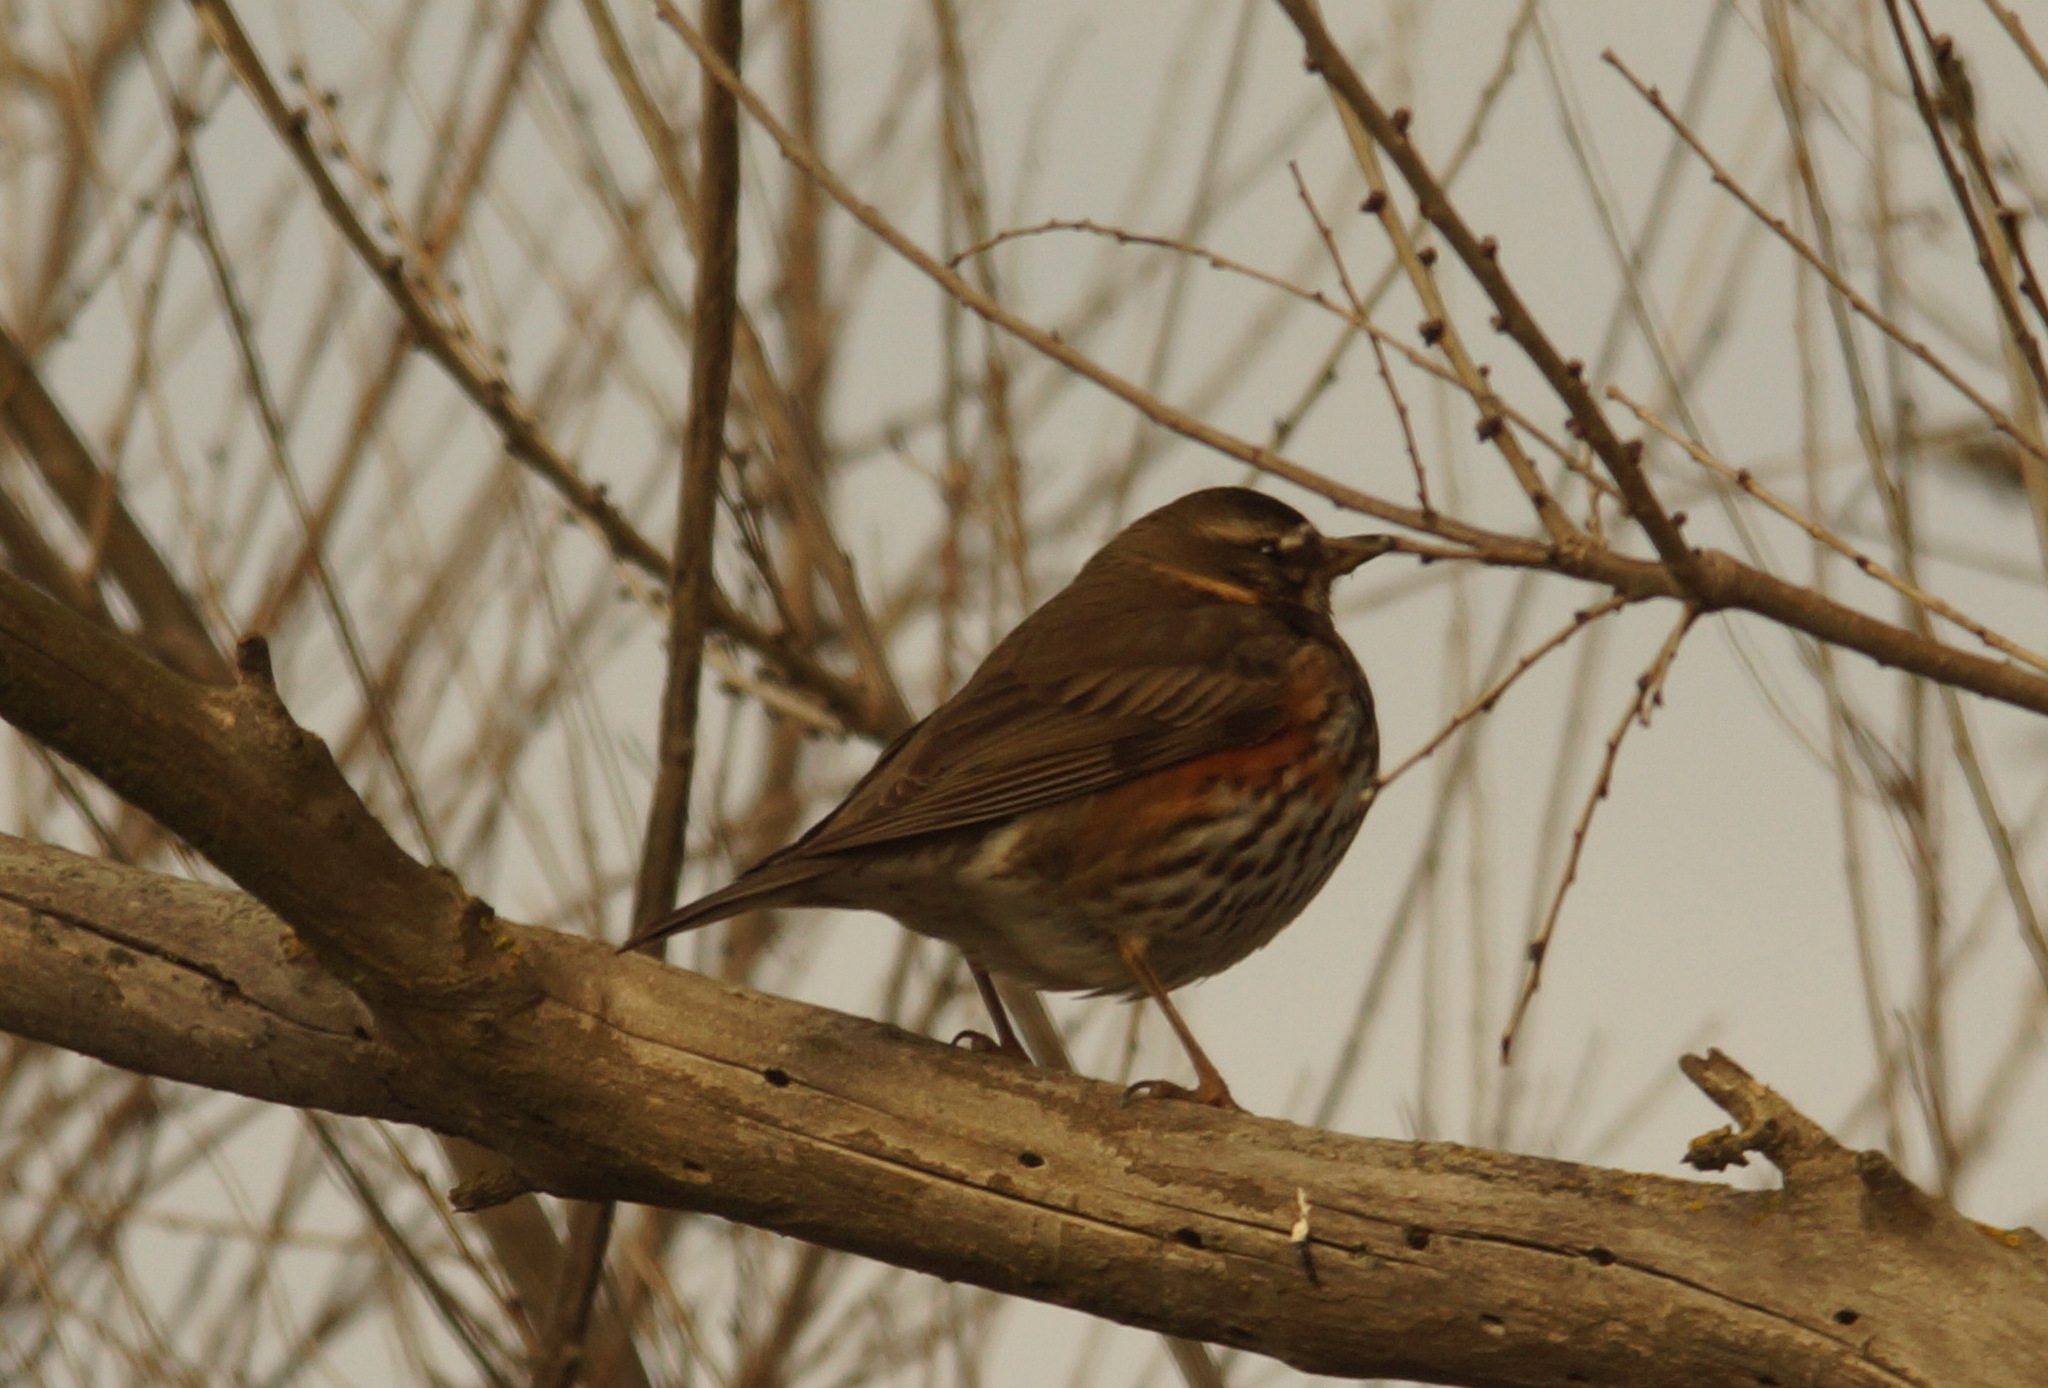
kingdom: Animalia
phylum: Chordata
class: Aves
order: Passeriformes
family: Turdidae
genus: Turdus
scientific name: Turdus iliacus
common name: Redwing
